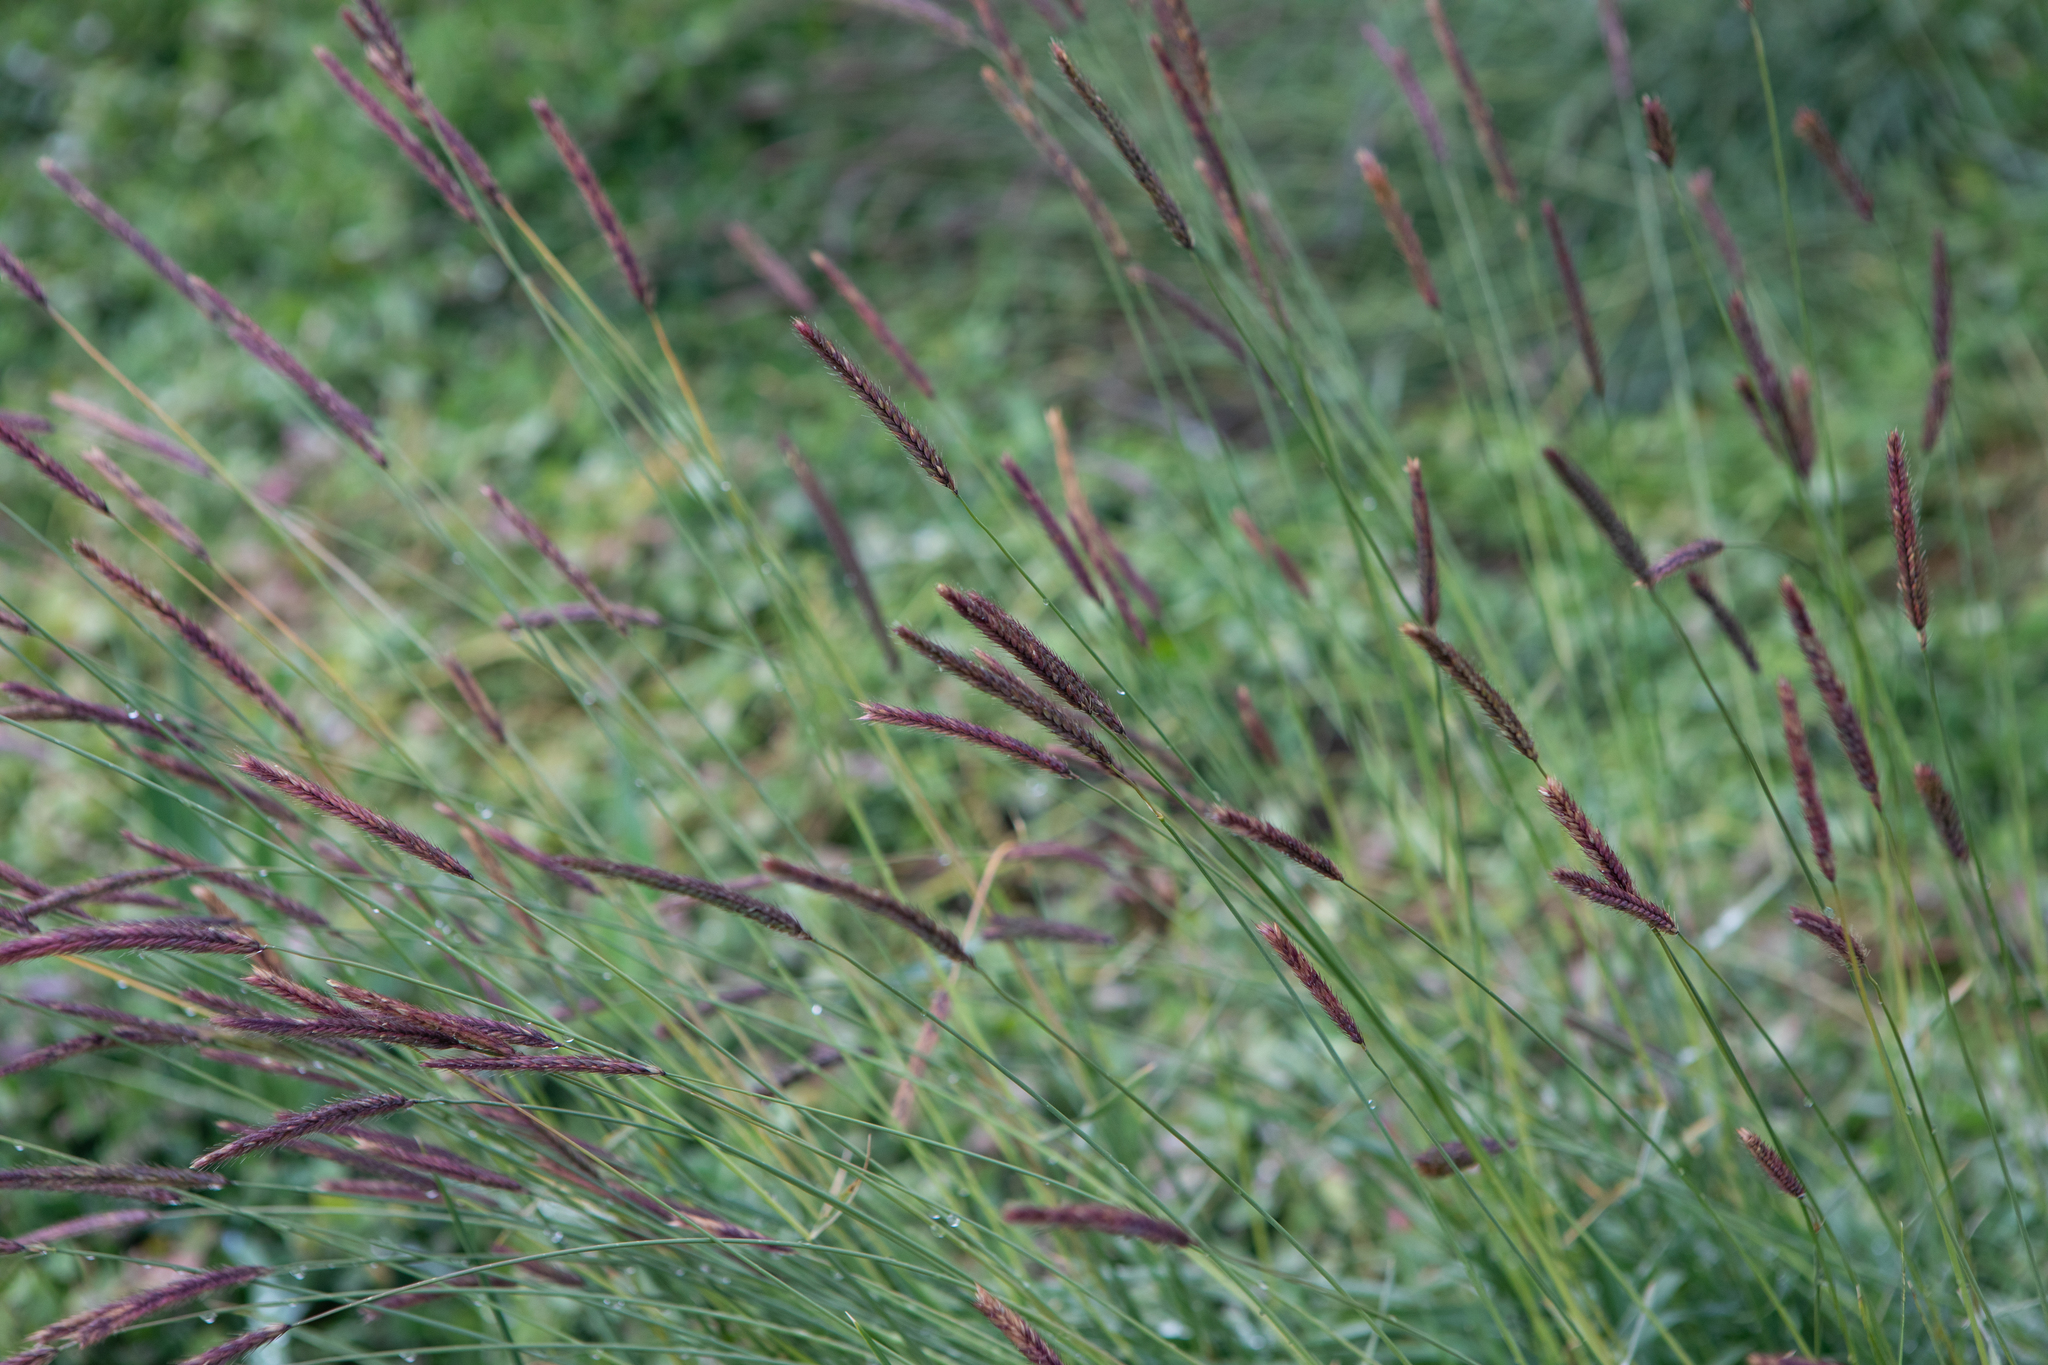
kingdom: Plantae
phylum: Tracheophyta
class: Liliopsida
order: Poales
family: Poaceae
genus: Hordeum
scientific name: Hordeum brevisubulatum
